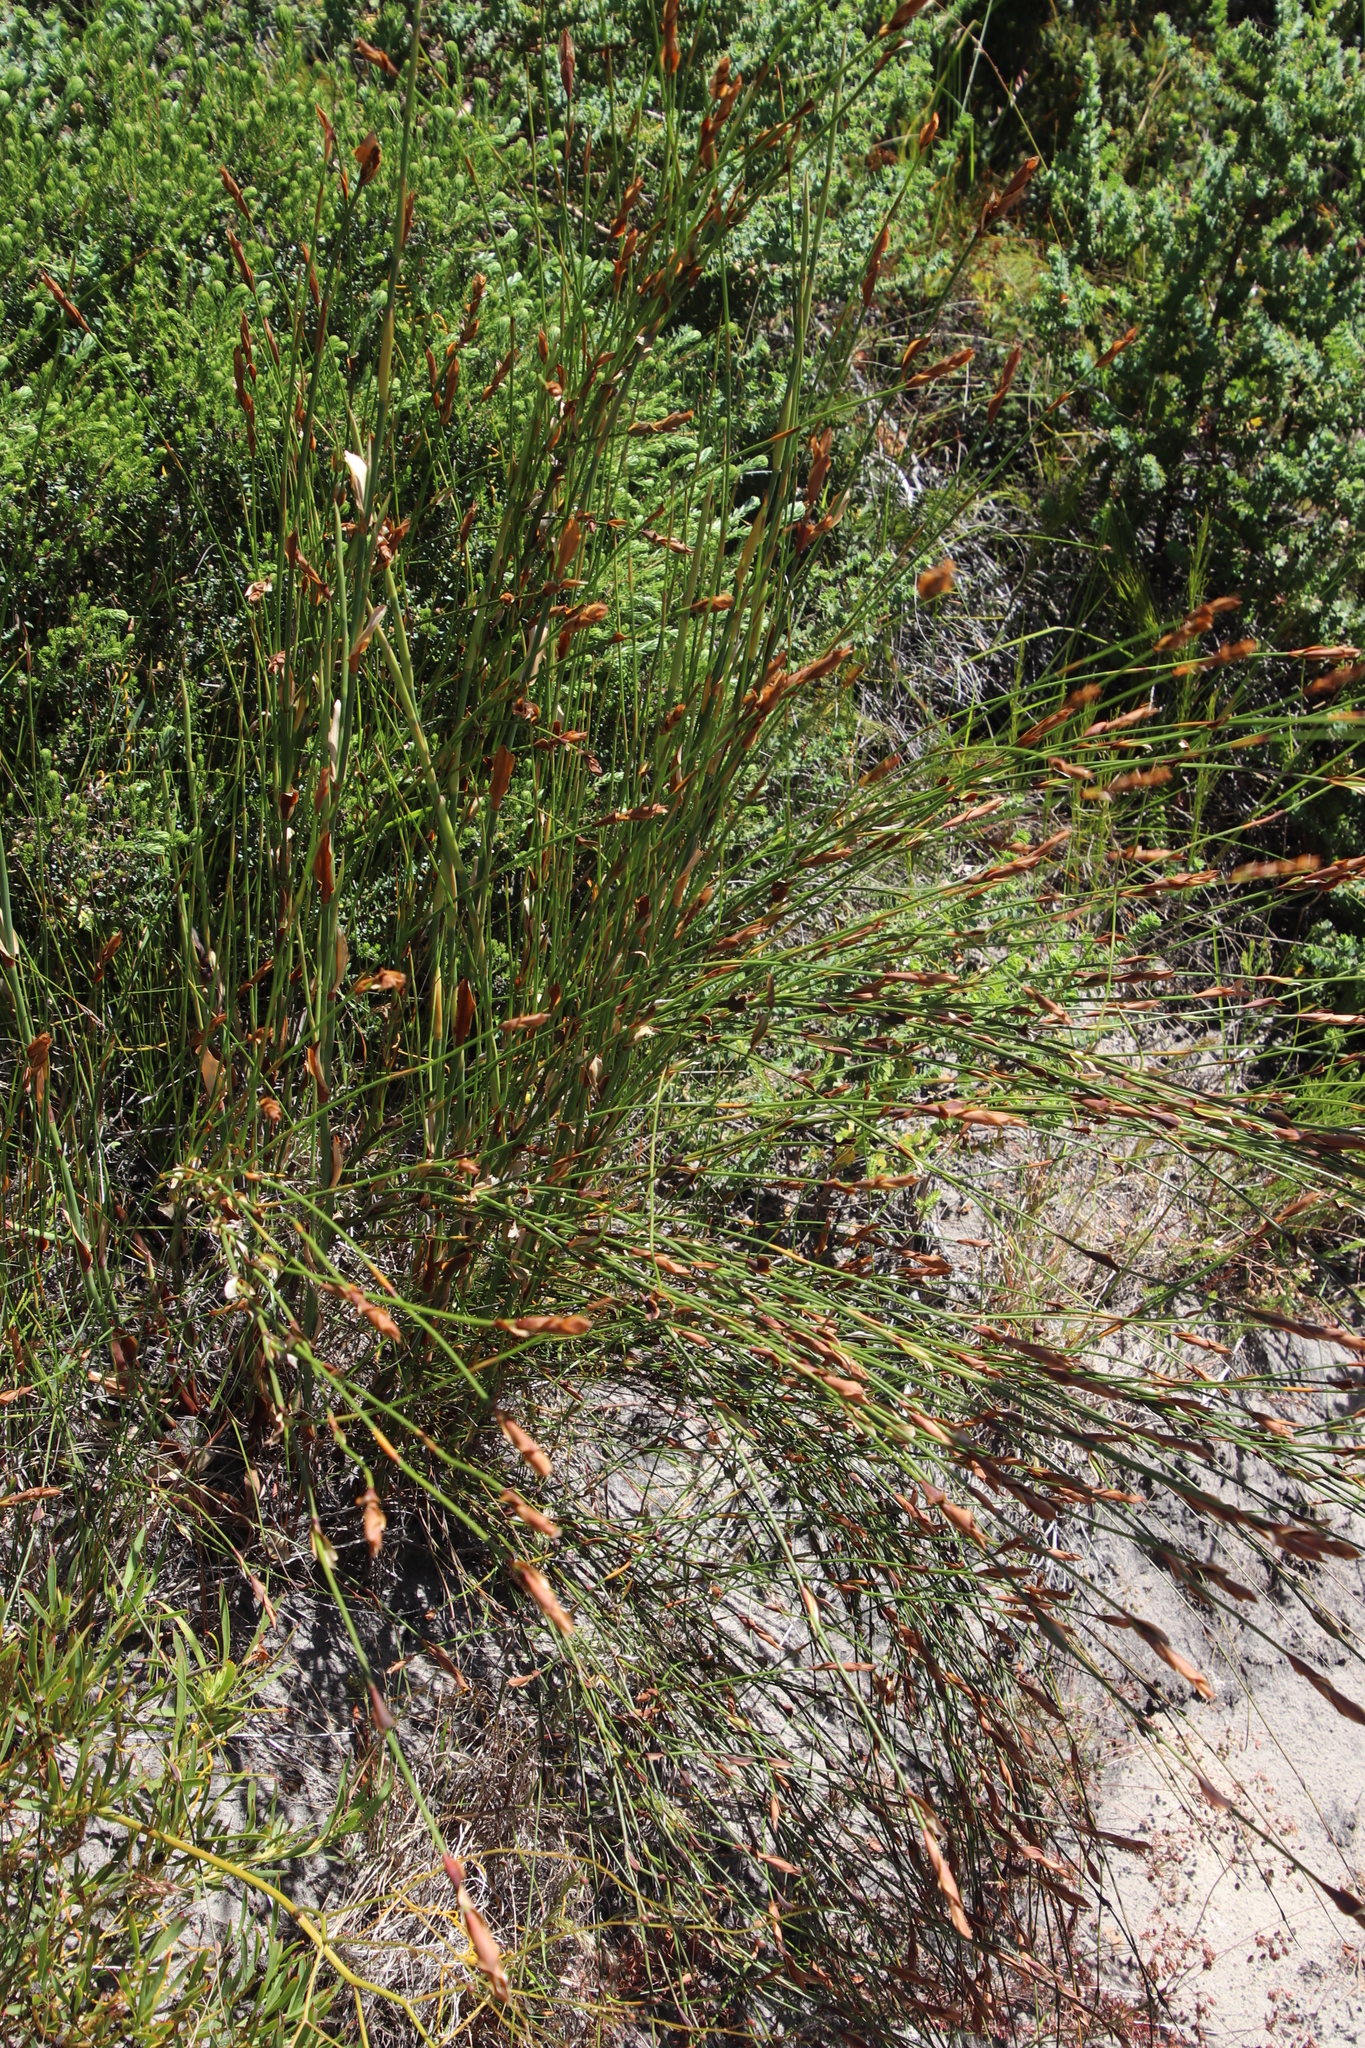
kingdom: Plantae
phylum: Tracheophyta
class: Liliopsida
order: Poales
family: Restionaceae
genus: Elegia
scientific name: Elegia equisetacea
